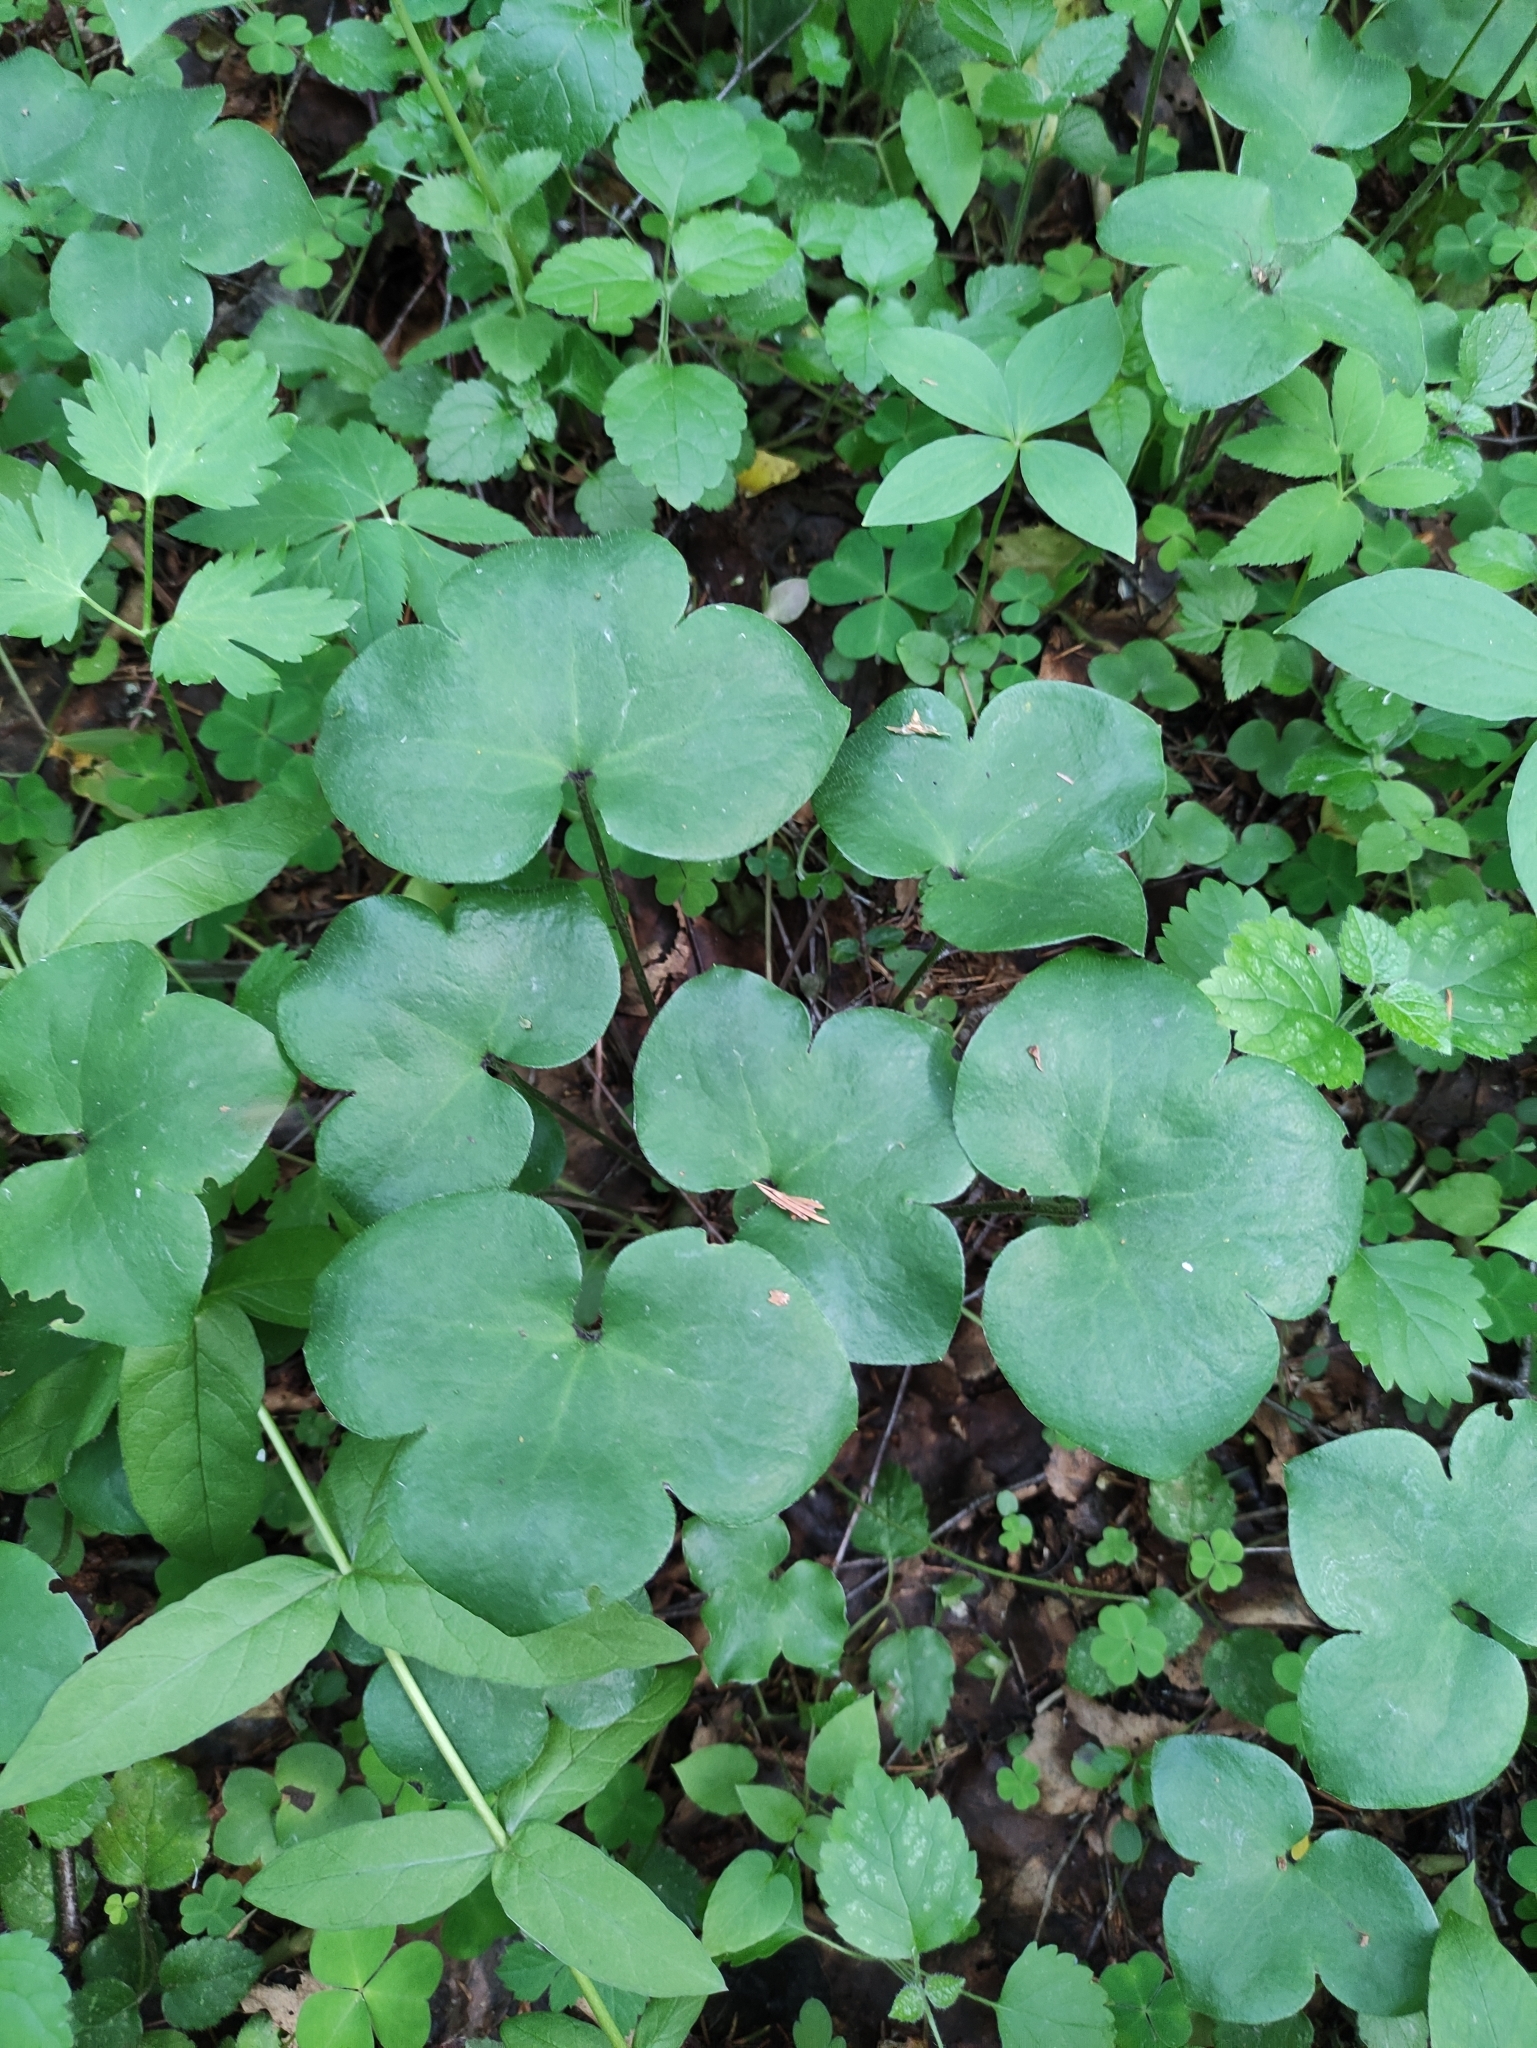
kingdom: Plantae
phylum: Tracheophyta
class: Magnoliopsida
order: Ranunculales
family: Ranunculaceae
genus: Hepatica
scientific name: Hepatica nobilis
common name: Liverleaf
